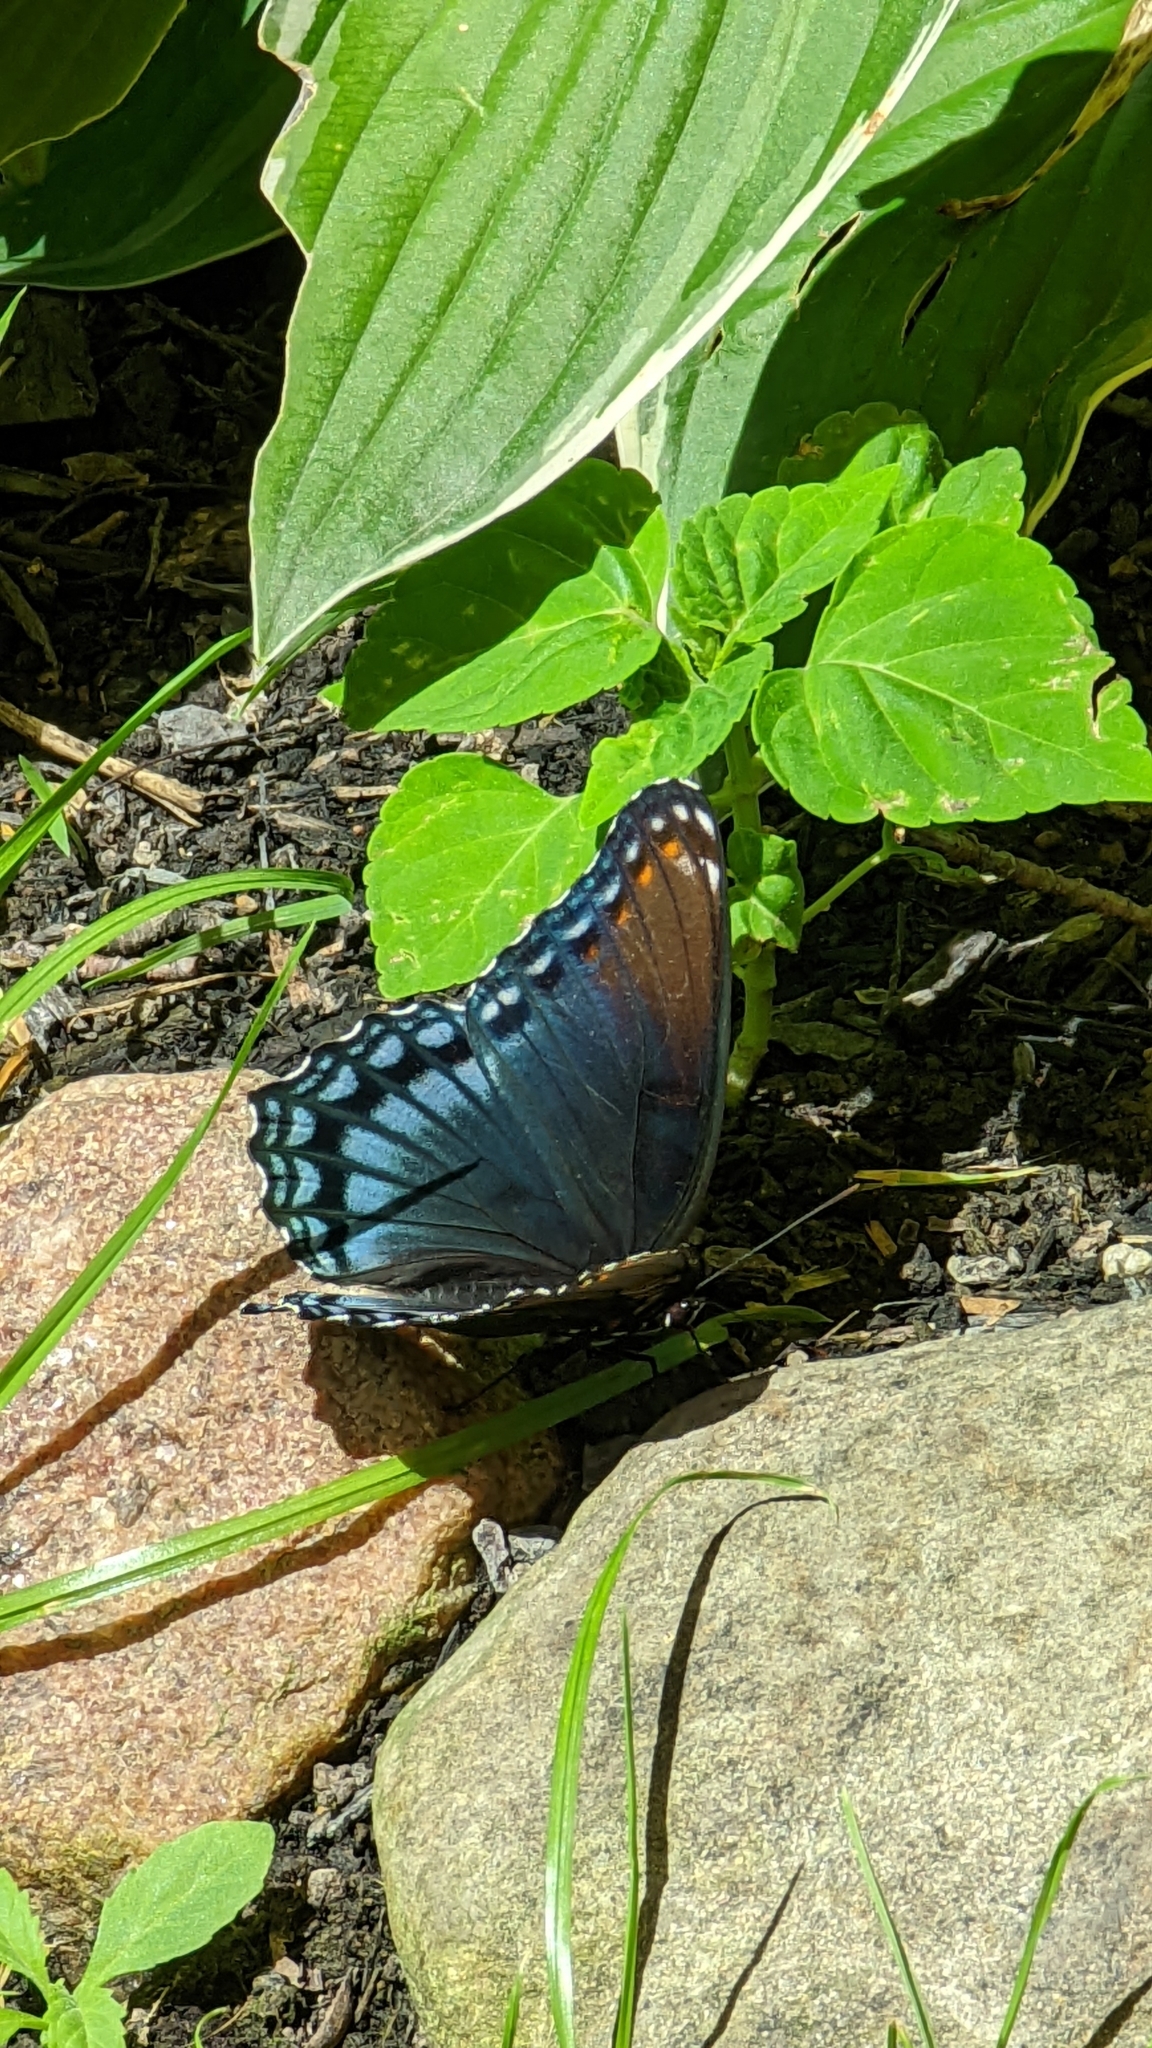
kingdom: Animalia
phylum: Arthropoda
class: Insecta
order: Lepidoptera
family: Nymphalidae
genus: Limenitis
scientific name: Limenitis astyanax
